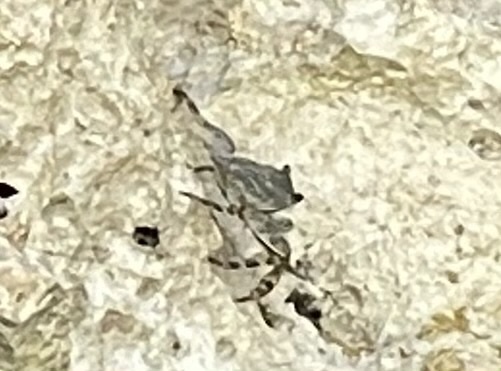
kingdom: Animalia
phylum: Arthropoda
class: Malacostraca
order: Decapoda
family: Grapsidae
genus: Grapsus
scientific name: Grapsus grapsus
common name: Sally lightfoot
